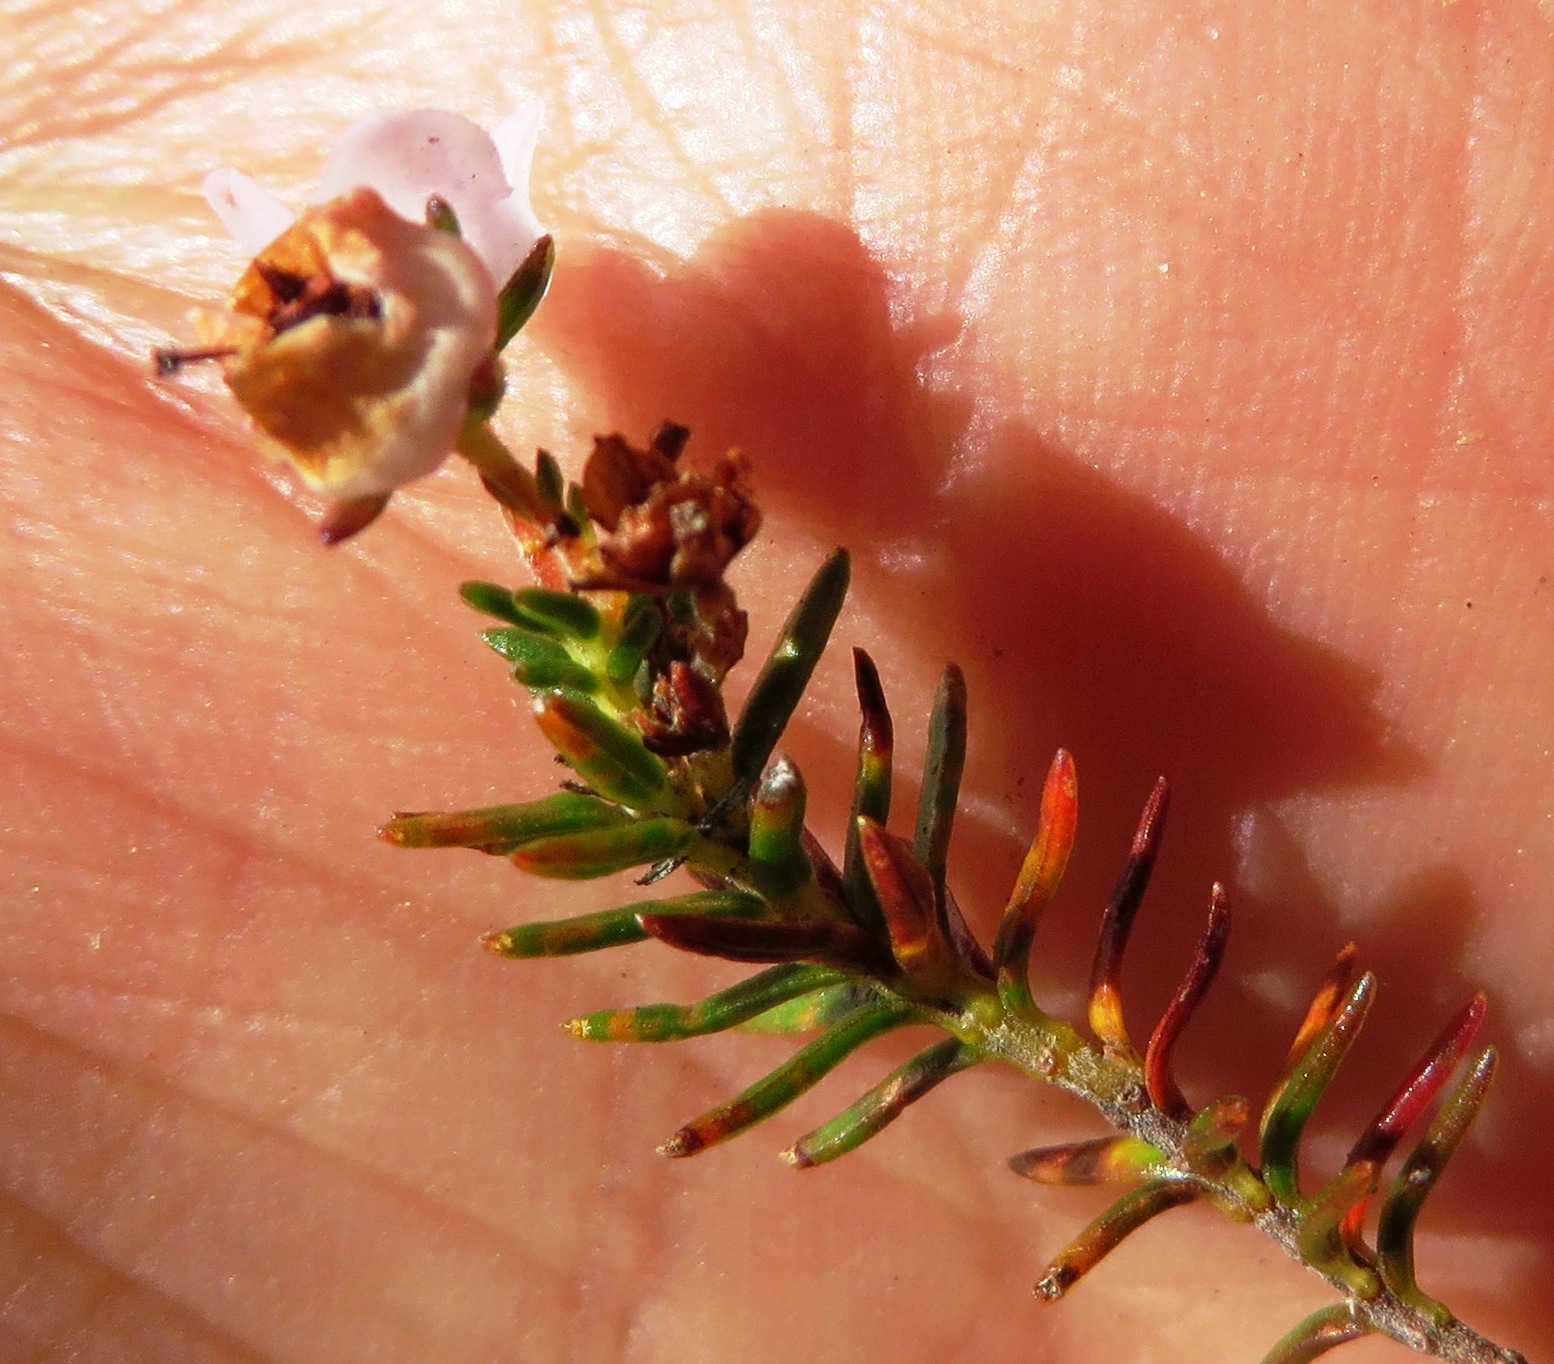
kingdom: Plantae
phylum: Tracheophyta
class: Magnoliopsida
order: Ericales
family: Ericaceae
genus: Erica
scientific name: Erica curvirostris
